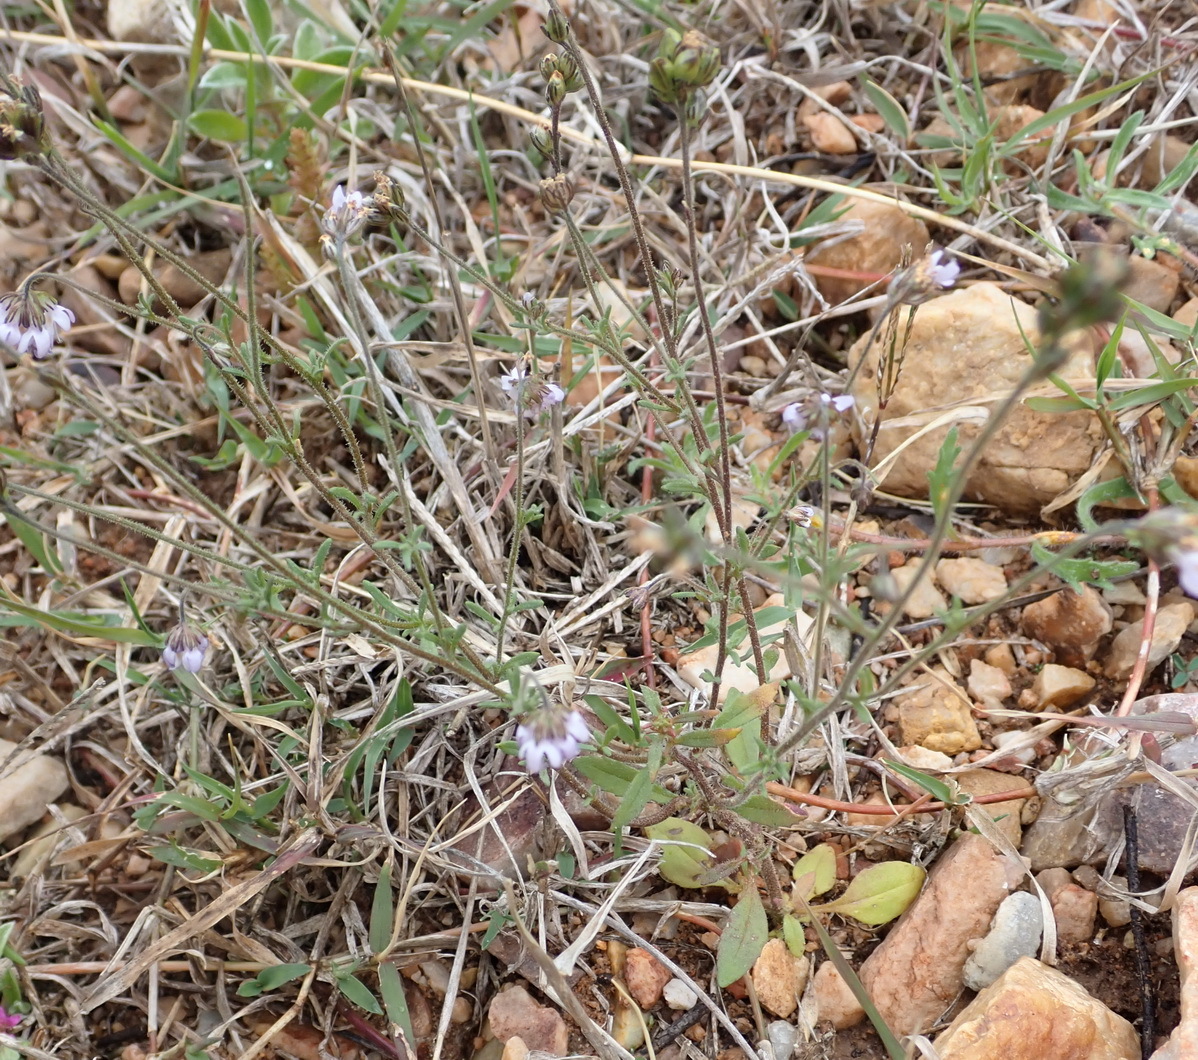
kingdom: Plantae
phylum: Tracheophyta
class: Magnoliopsida
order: Lamiales
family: Scrophulariaceae
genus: Phyllopodium
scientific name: Phyllopodium elegans
